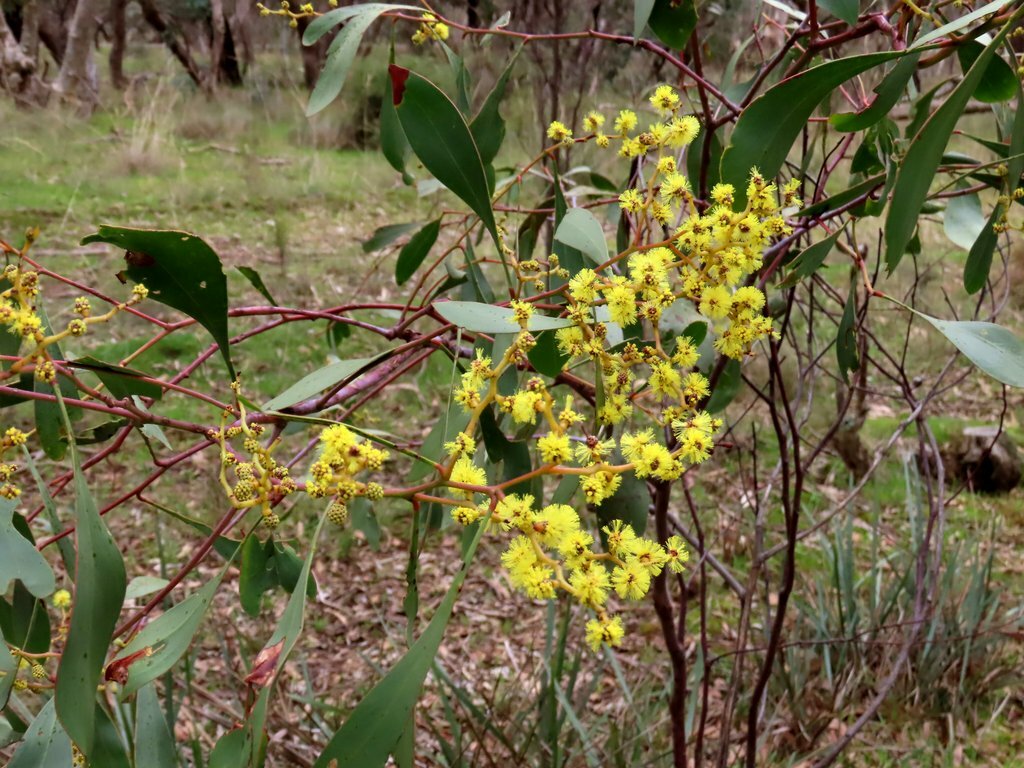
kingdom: Plantae
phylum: Tracheophyta
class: Magnoliopsida
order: Fabales
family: Fabaceae
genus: Acacia
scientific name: Acacia pycnantha
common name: Golden wattle
